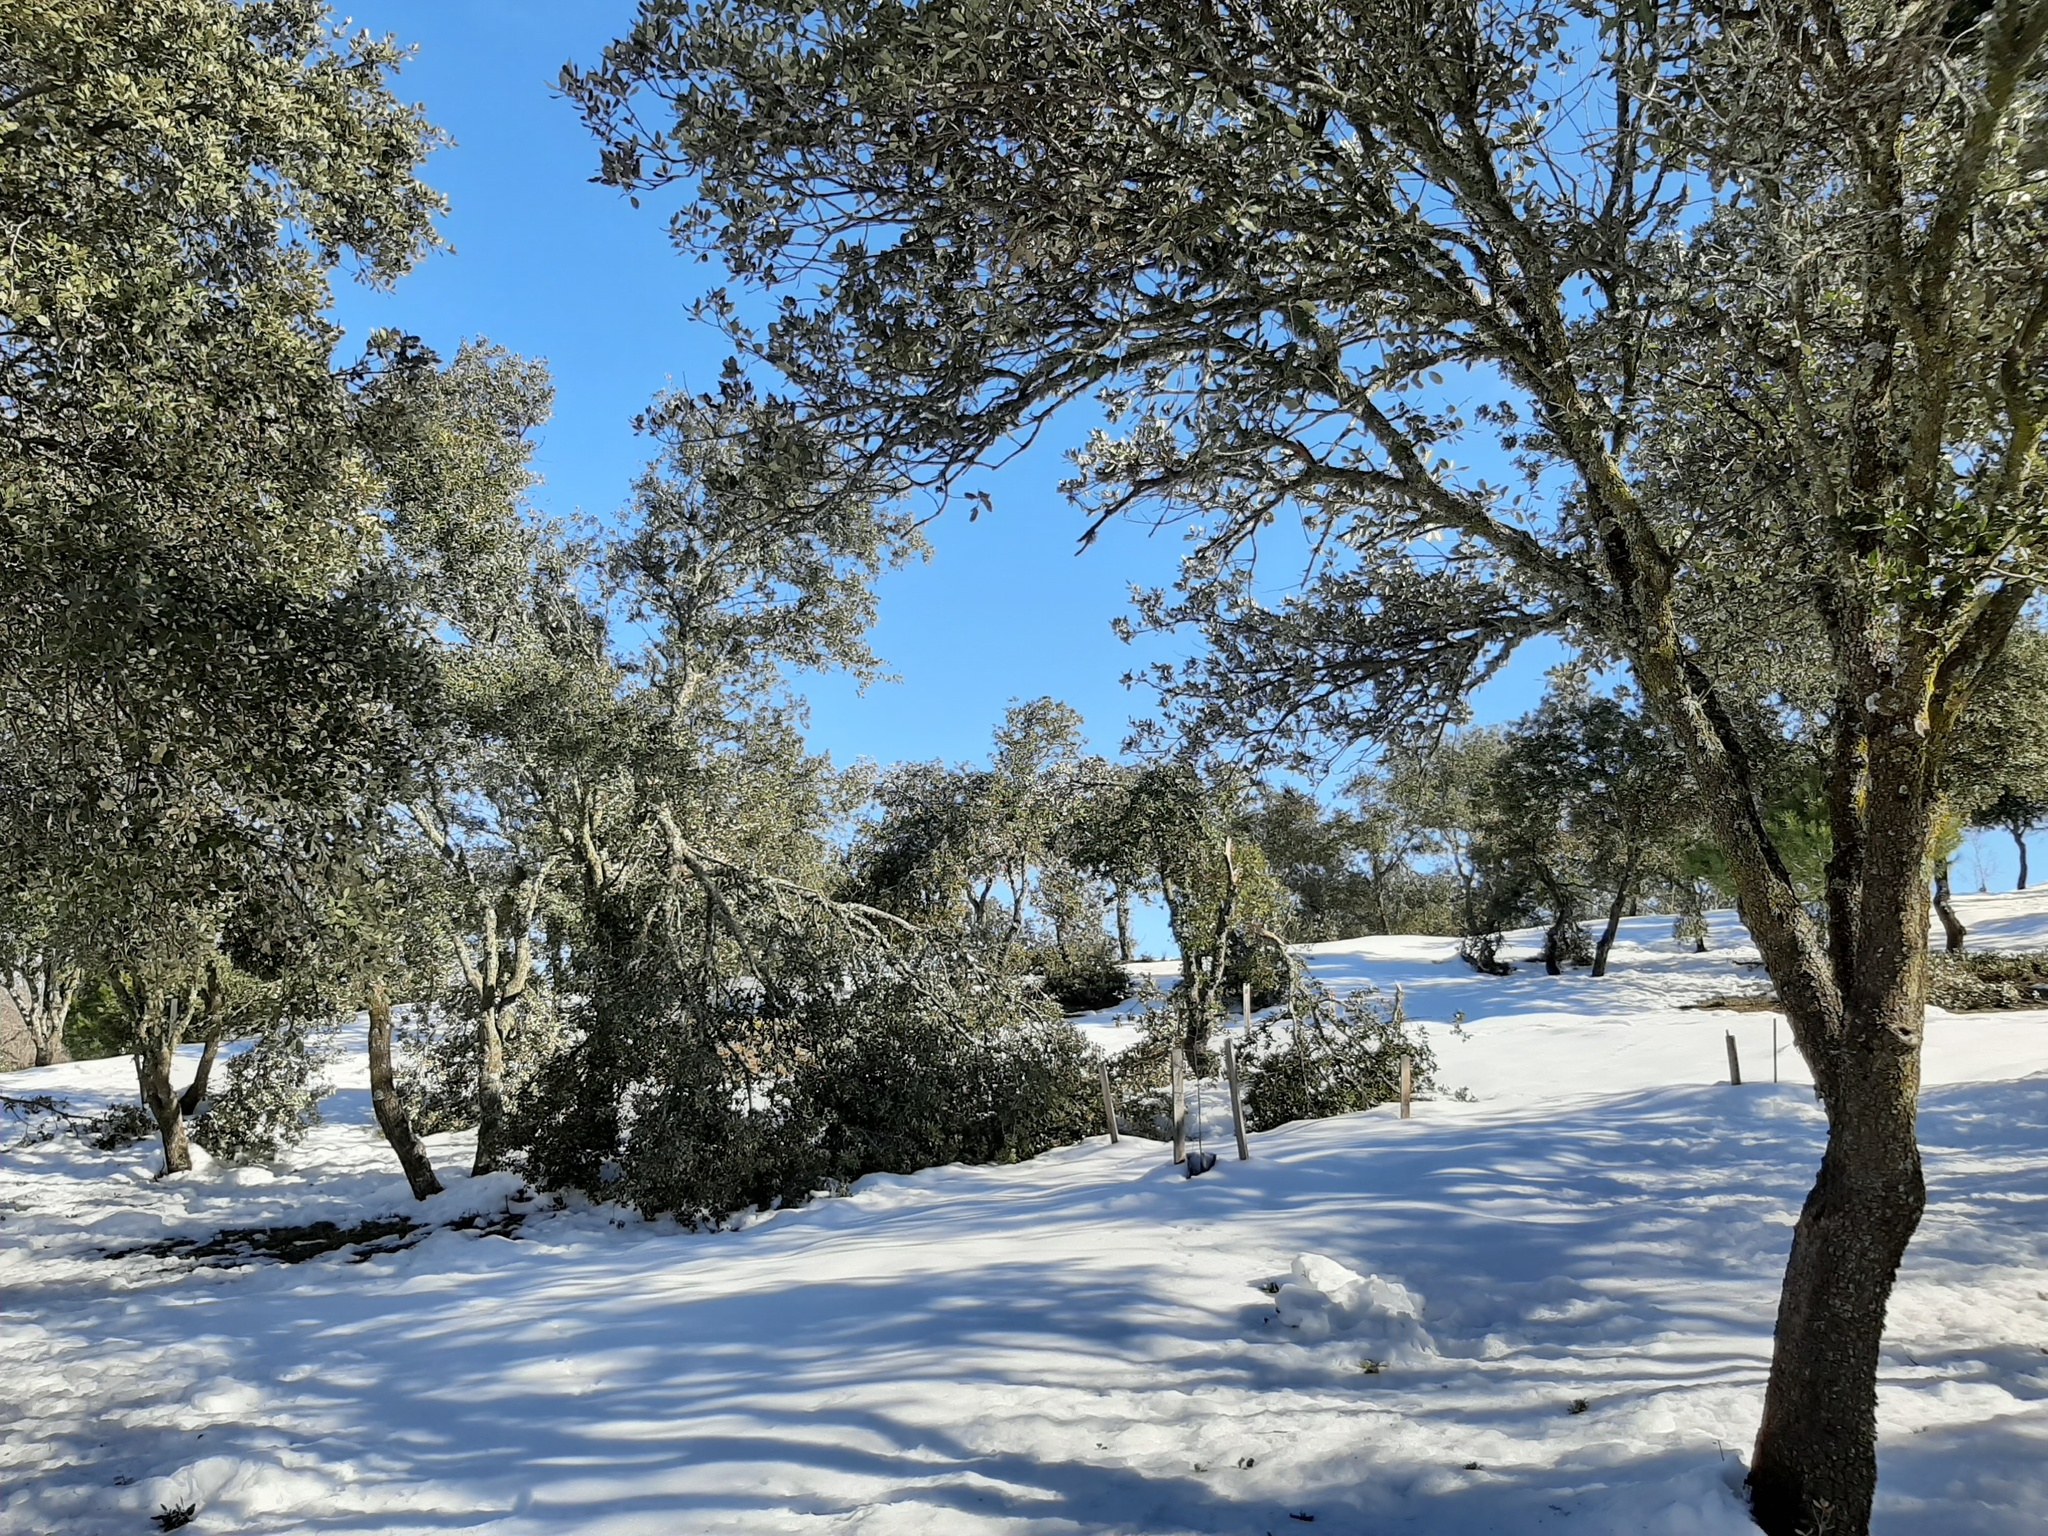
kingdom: Plantae
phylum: Tracheophyta
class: Magnoliopsida
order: Fagales
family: Fagaceae
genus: Quercus
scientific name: Quercus rotundifolia
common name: Holm oak
